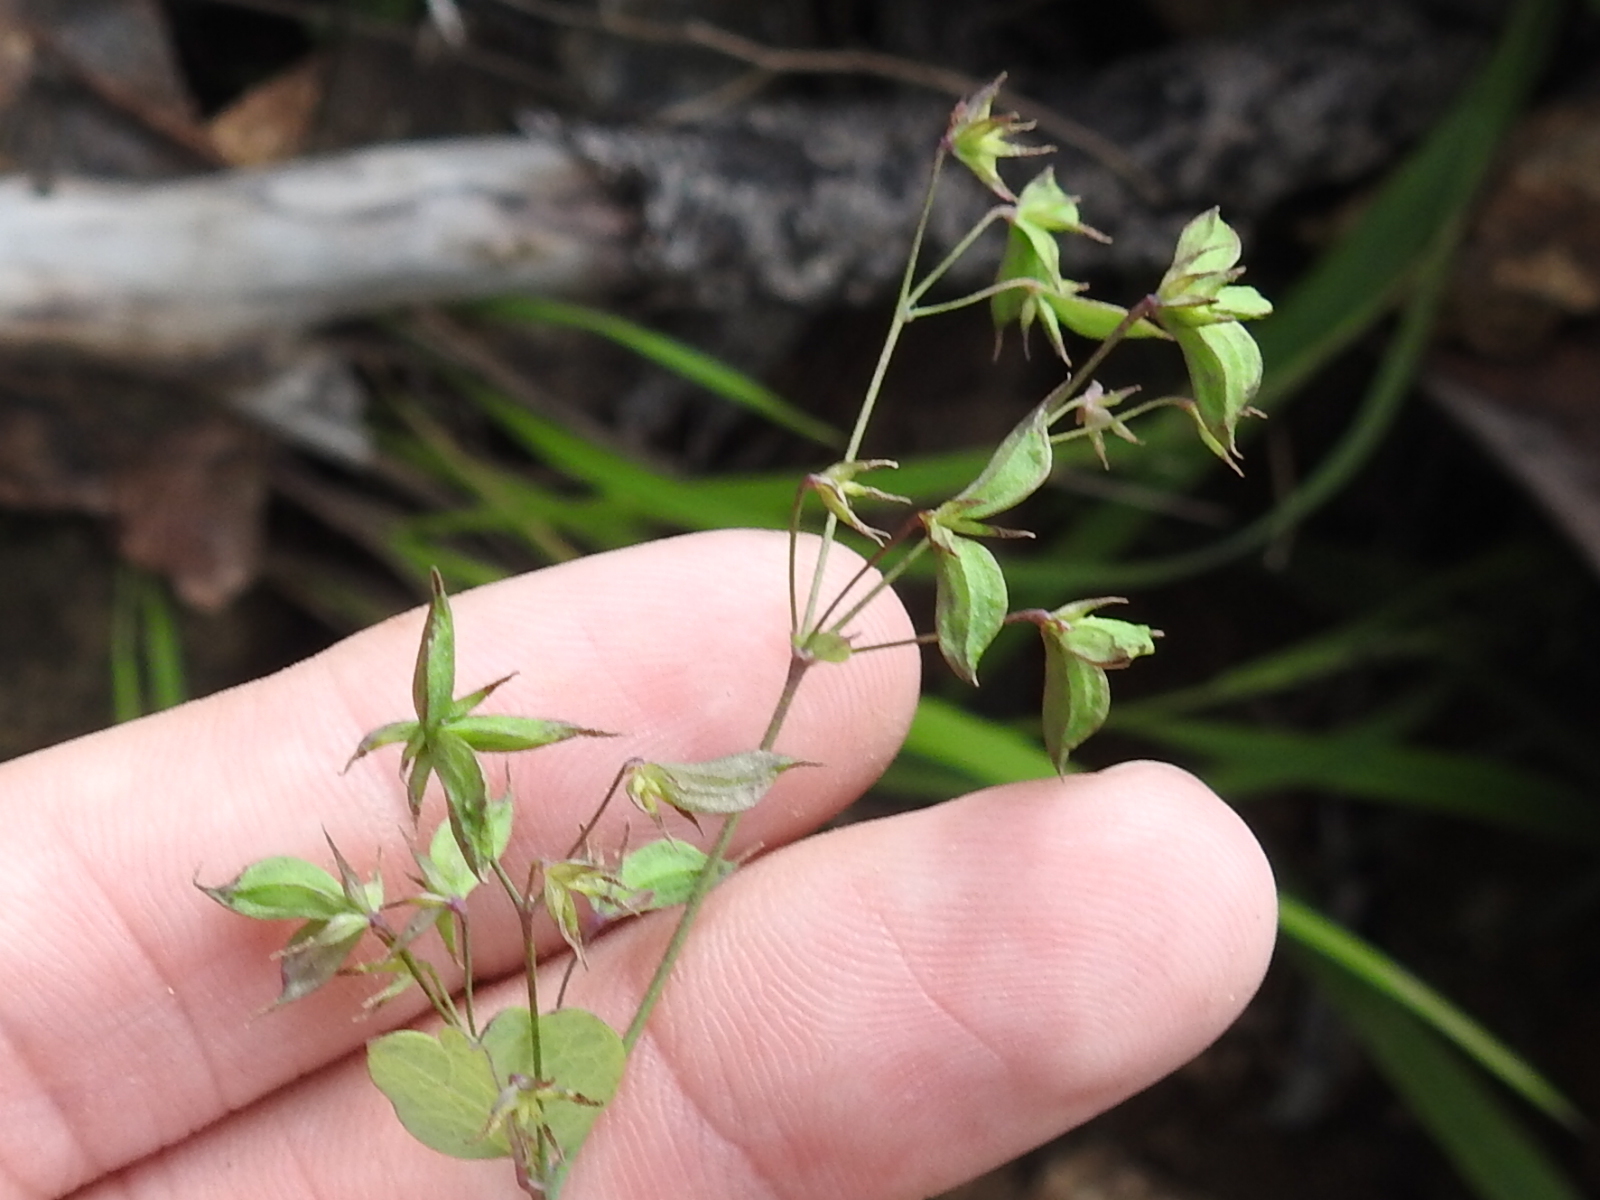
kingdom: Plantae
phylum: Tracheophyta
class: Magnoliopsida
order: Ranunculales
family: Ranunculaceae
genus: Thalictrum
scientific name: Thalictrum fendleri
